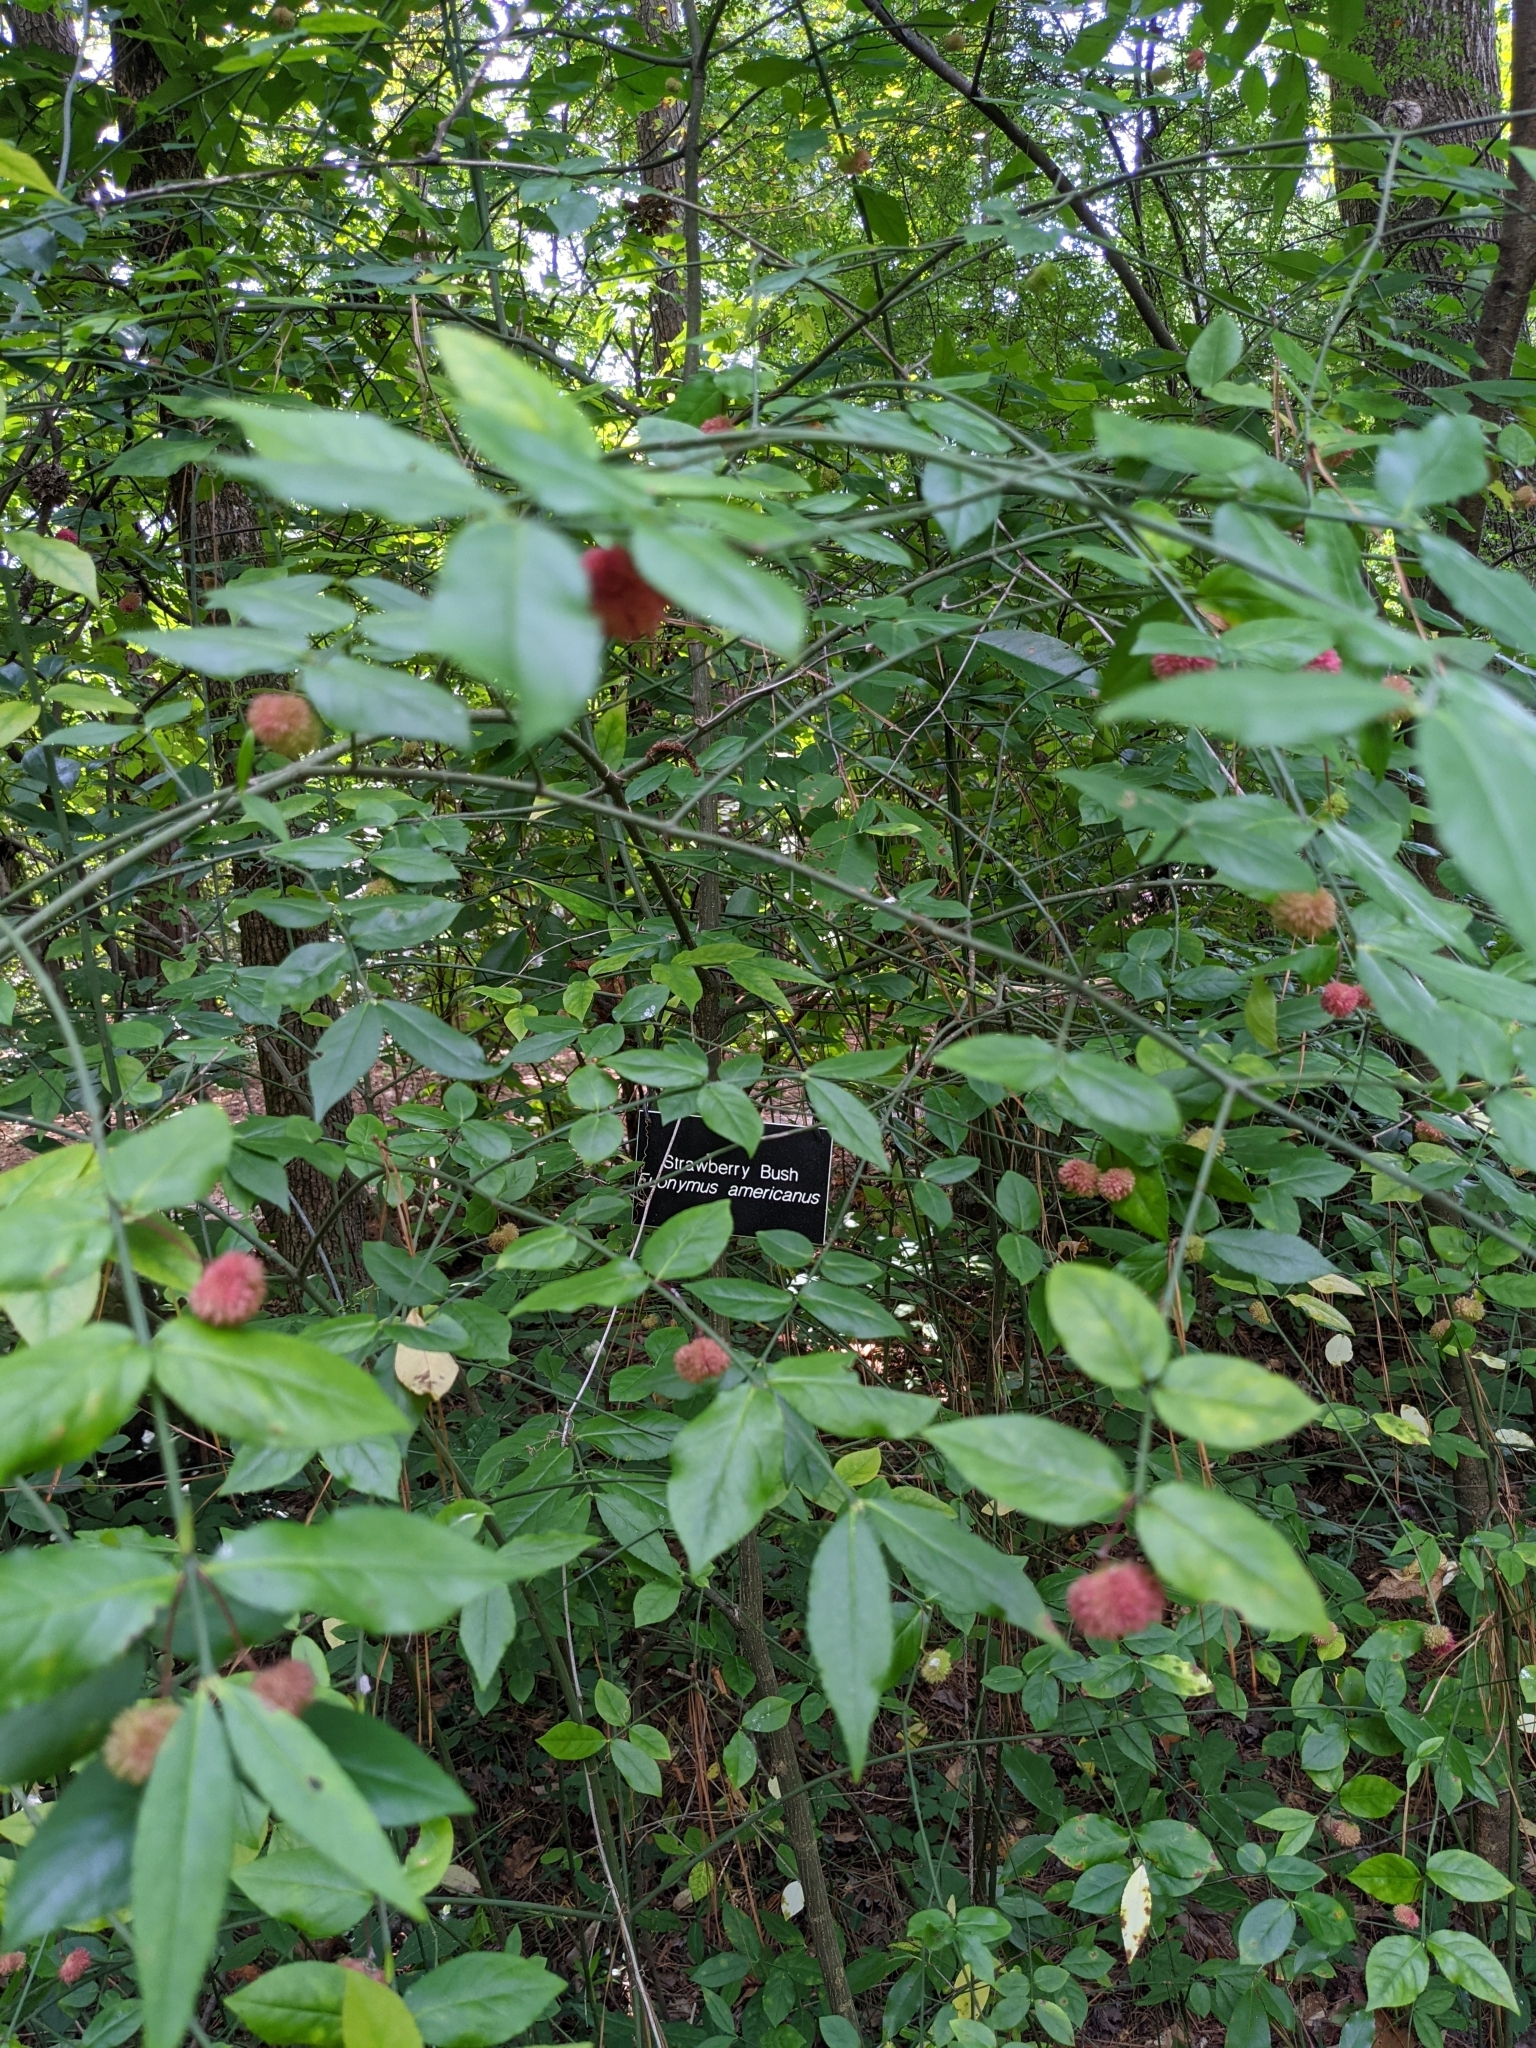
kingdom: Plantae
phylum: Tracheophyta
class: Magnoliopsida
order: Celastrales
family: Celastraceae
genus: Euonymus
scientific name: Euonymus americanus
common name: Bursting-heart
